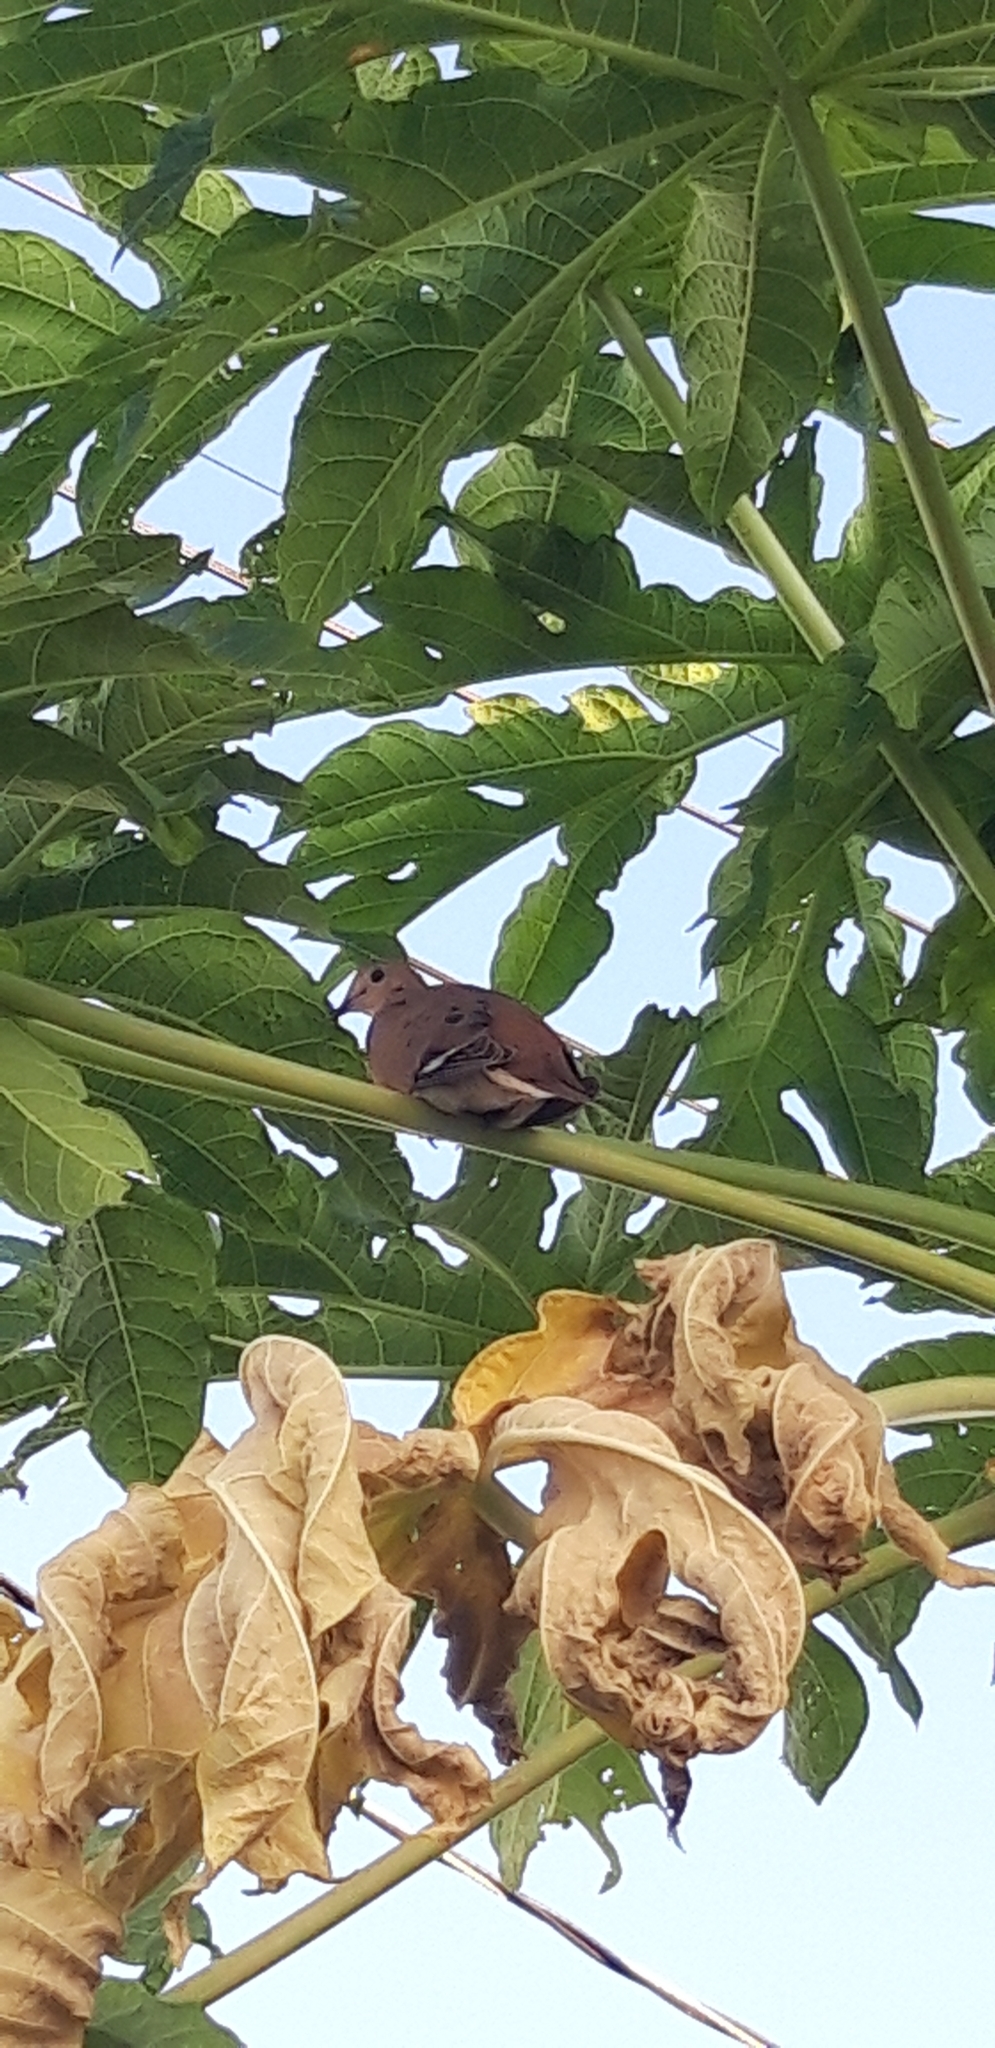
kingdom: Animalia
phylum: Chordata
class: Aves
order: Columbiformes
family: Columbidae
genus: Zenaida
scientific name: Zenaida aurita
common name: Zenaida dove
